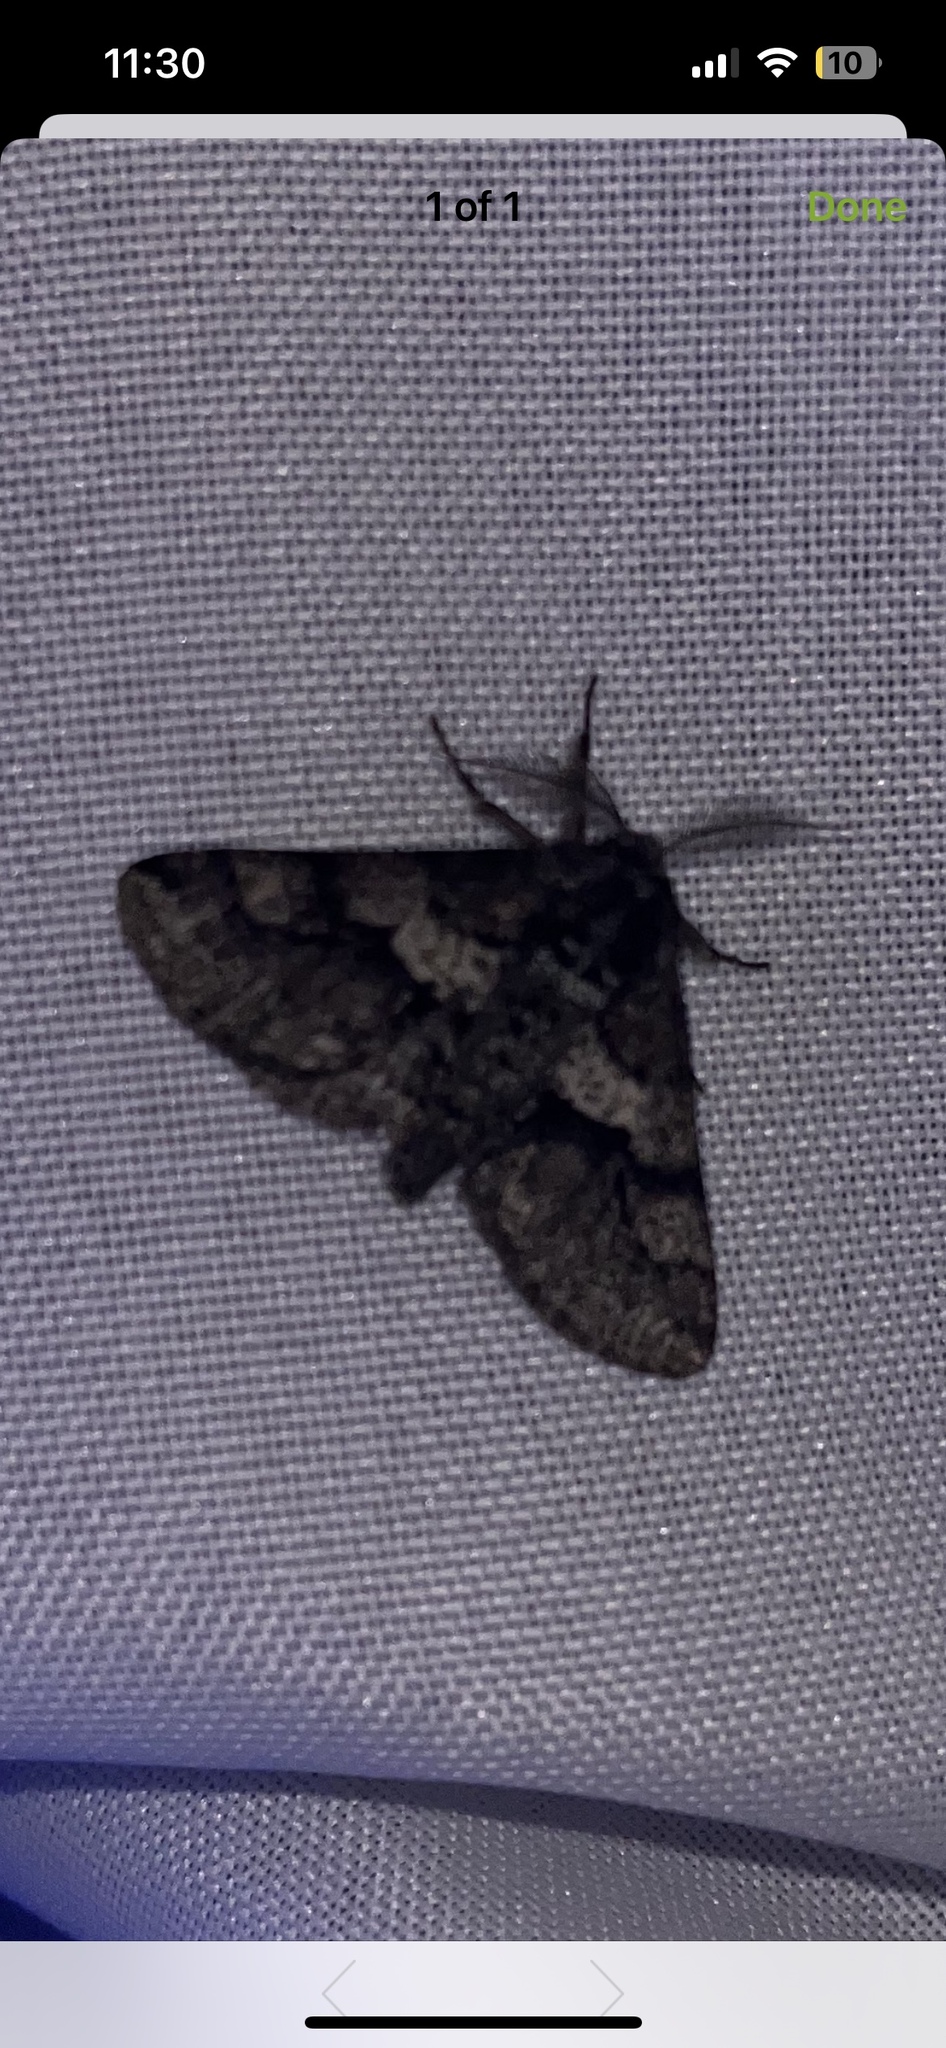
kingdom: Animalia
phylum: Arthropoda
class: Insecta
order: Lepidoptera
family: Geometridae
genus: Lycia
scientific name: Lycia ypsilon
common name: Wooly gray
